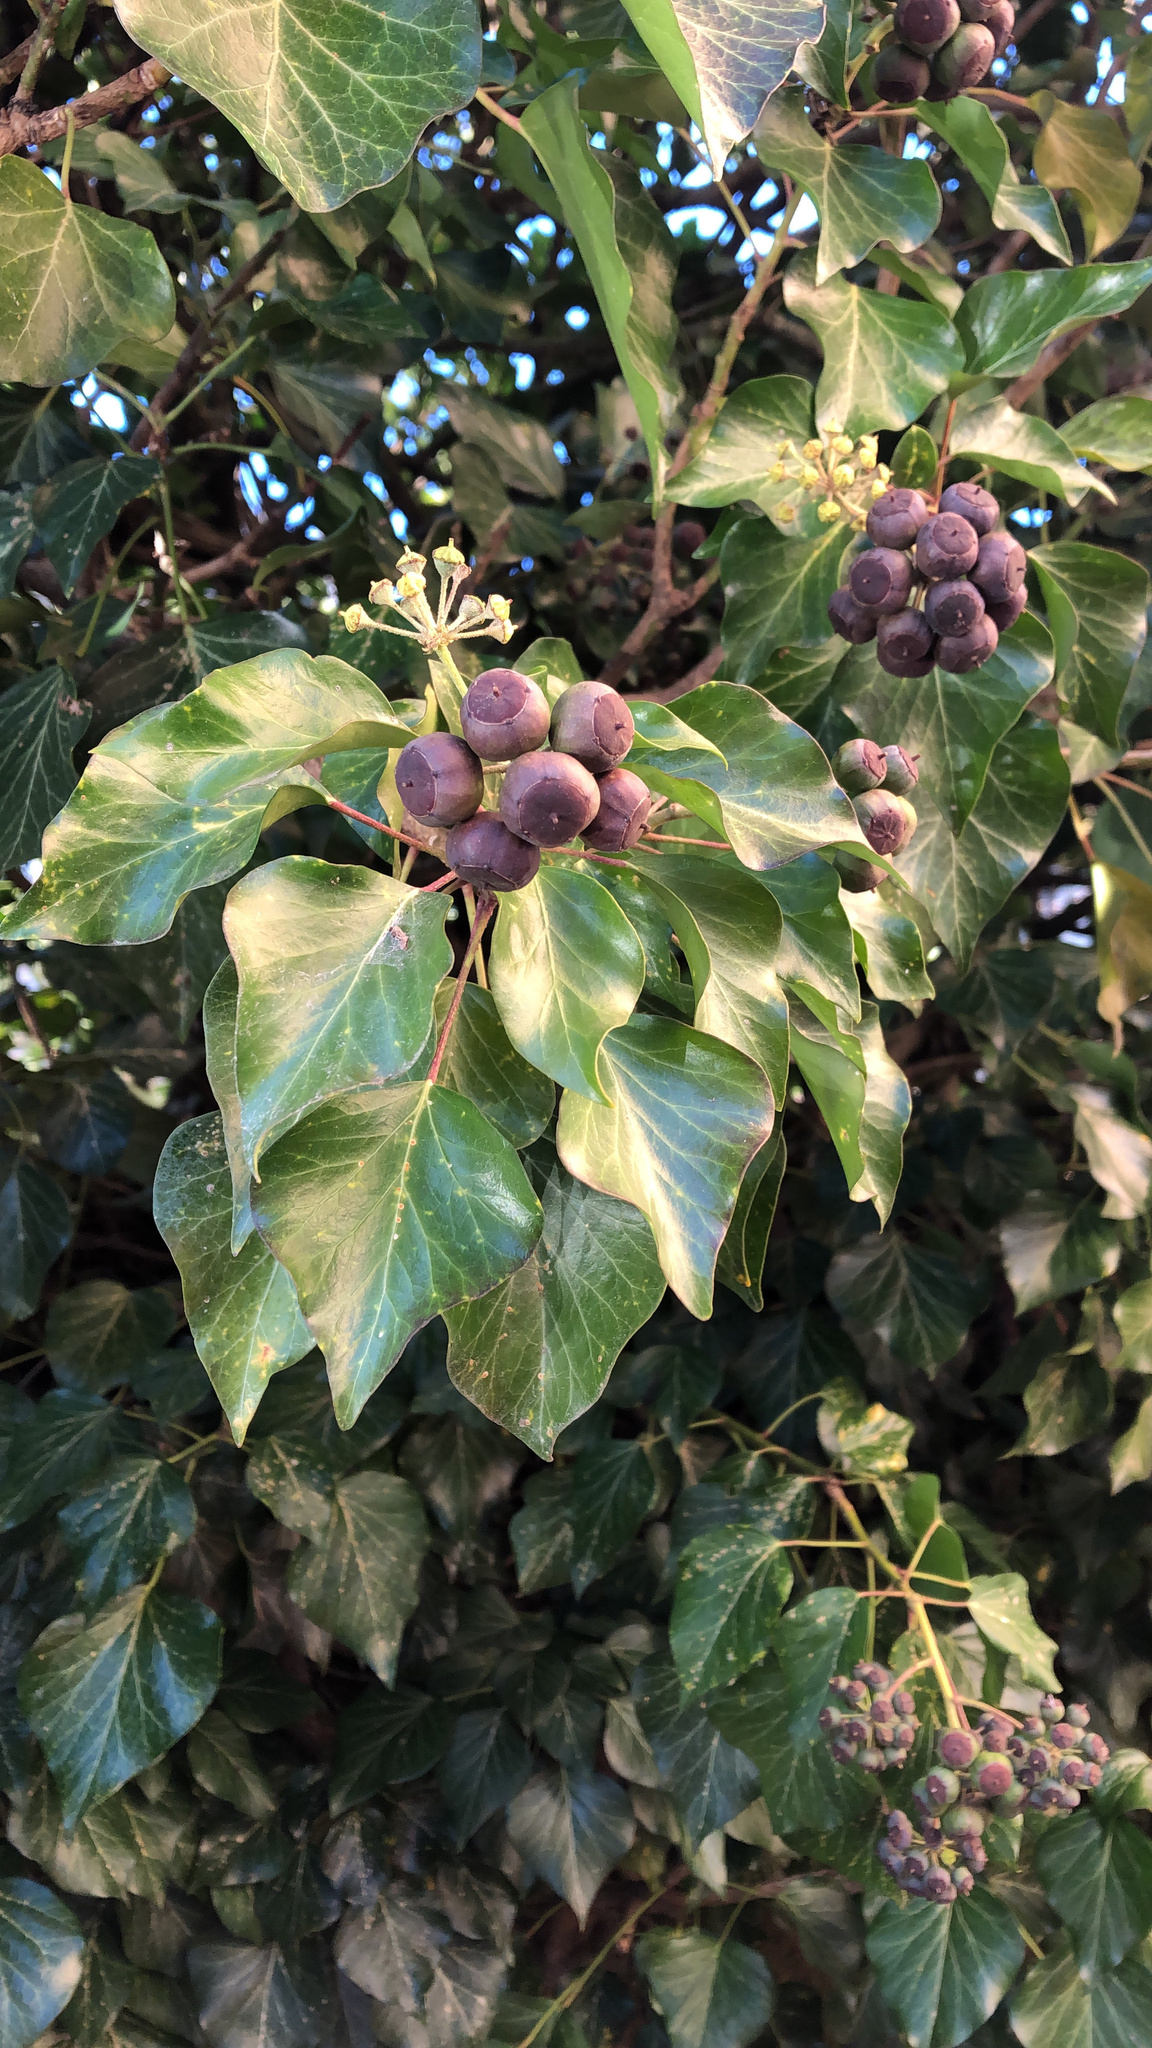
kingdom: Plantae
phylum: Tracheophyta
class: Magnoliopsida
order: Apiales
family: Araliaceae
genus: Hedera
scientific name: Hedera helix
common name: Ivy
